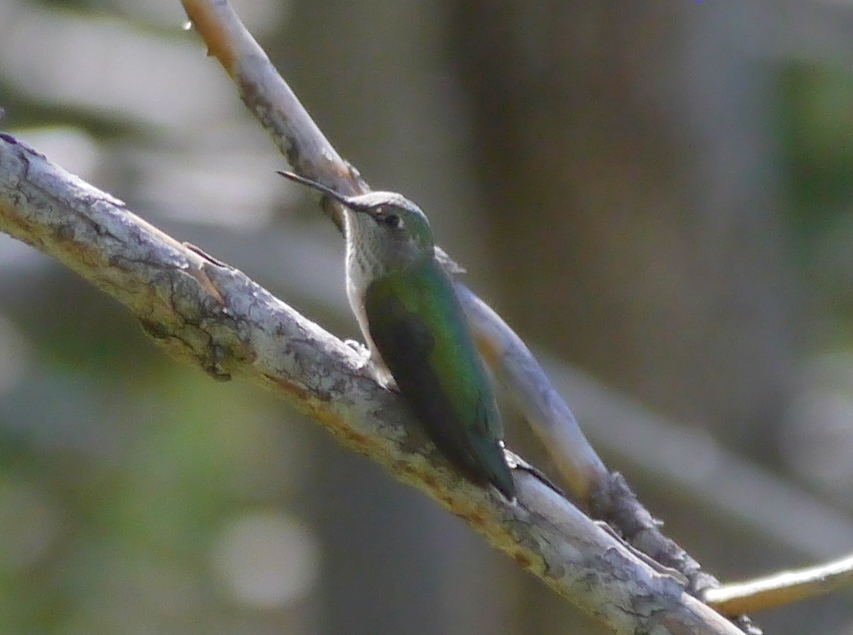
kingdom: Animalia
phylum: Chordata
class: Aves
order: Apodiformes
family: Trochilidae
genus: Selasphorus
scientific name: Selasphorus platycercus
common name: Broad-tailed hummingbird
